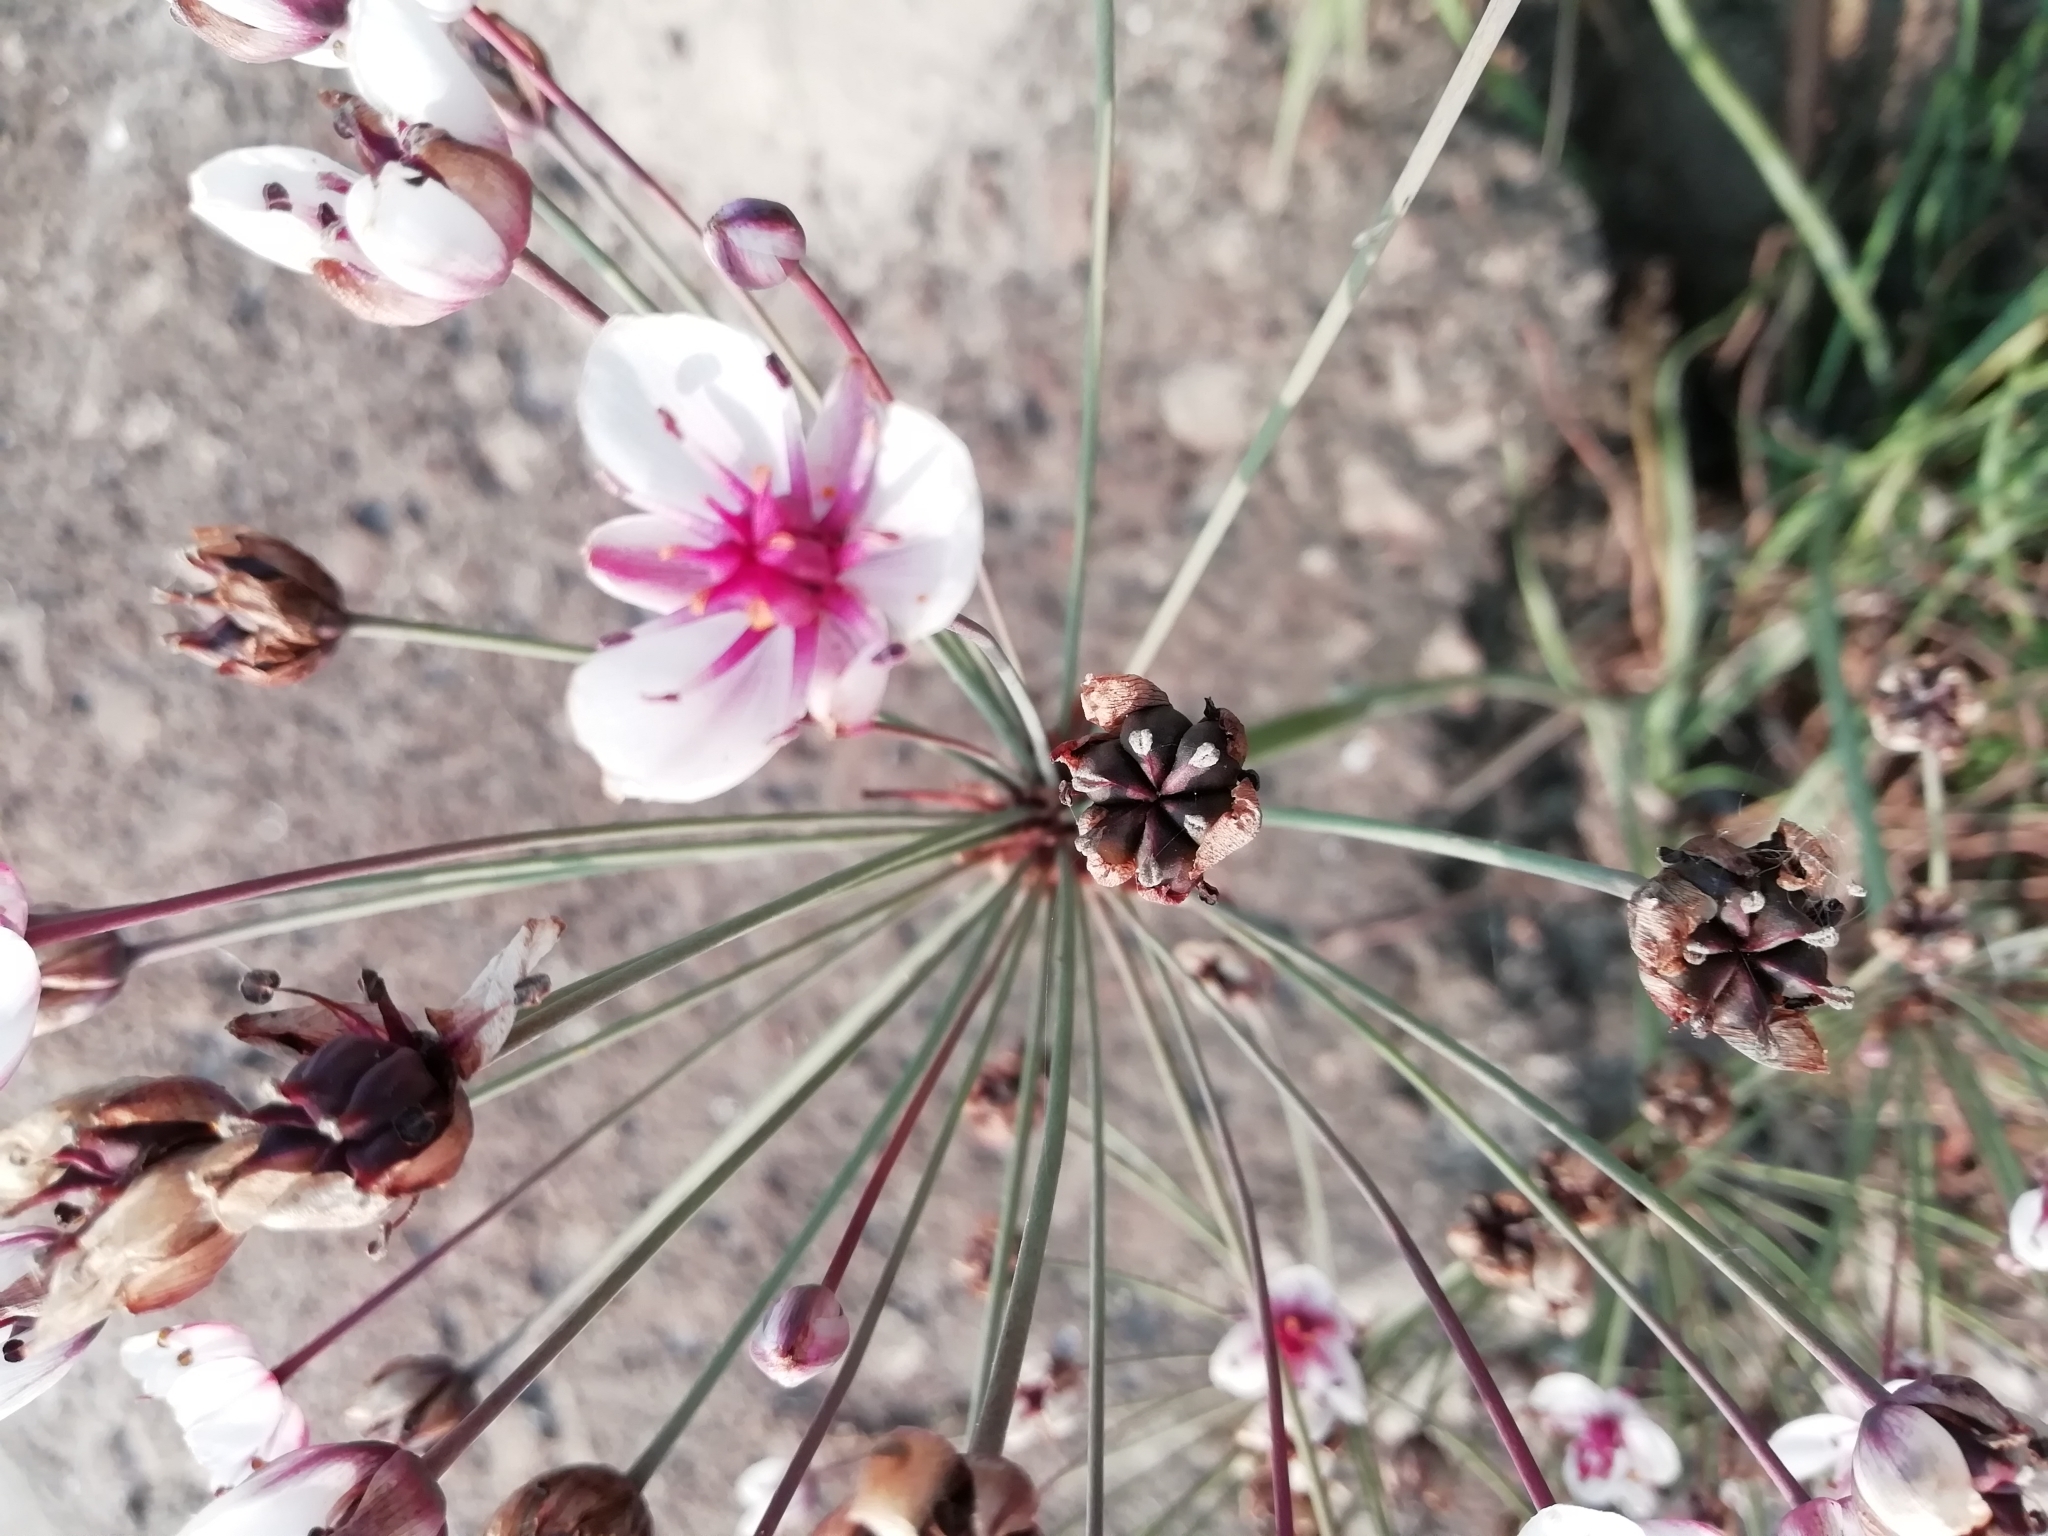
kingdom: Plantae
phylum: Tracheophyta
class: Liliopsida
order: Alismatales
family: Butomaceae
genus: Butomus
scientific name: Butomus umbellatus
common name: Flowering-rush
